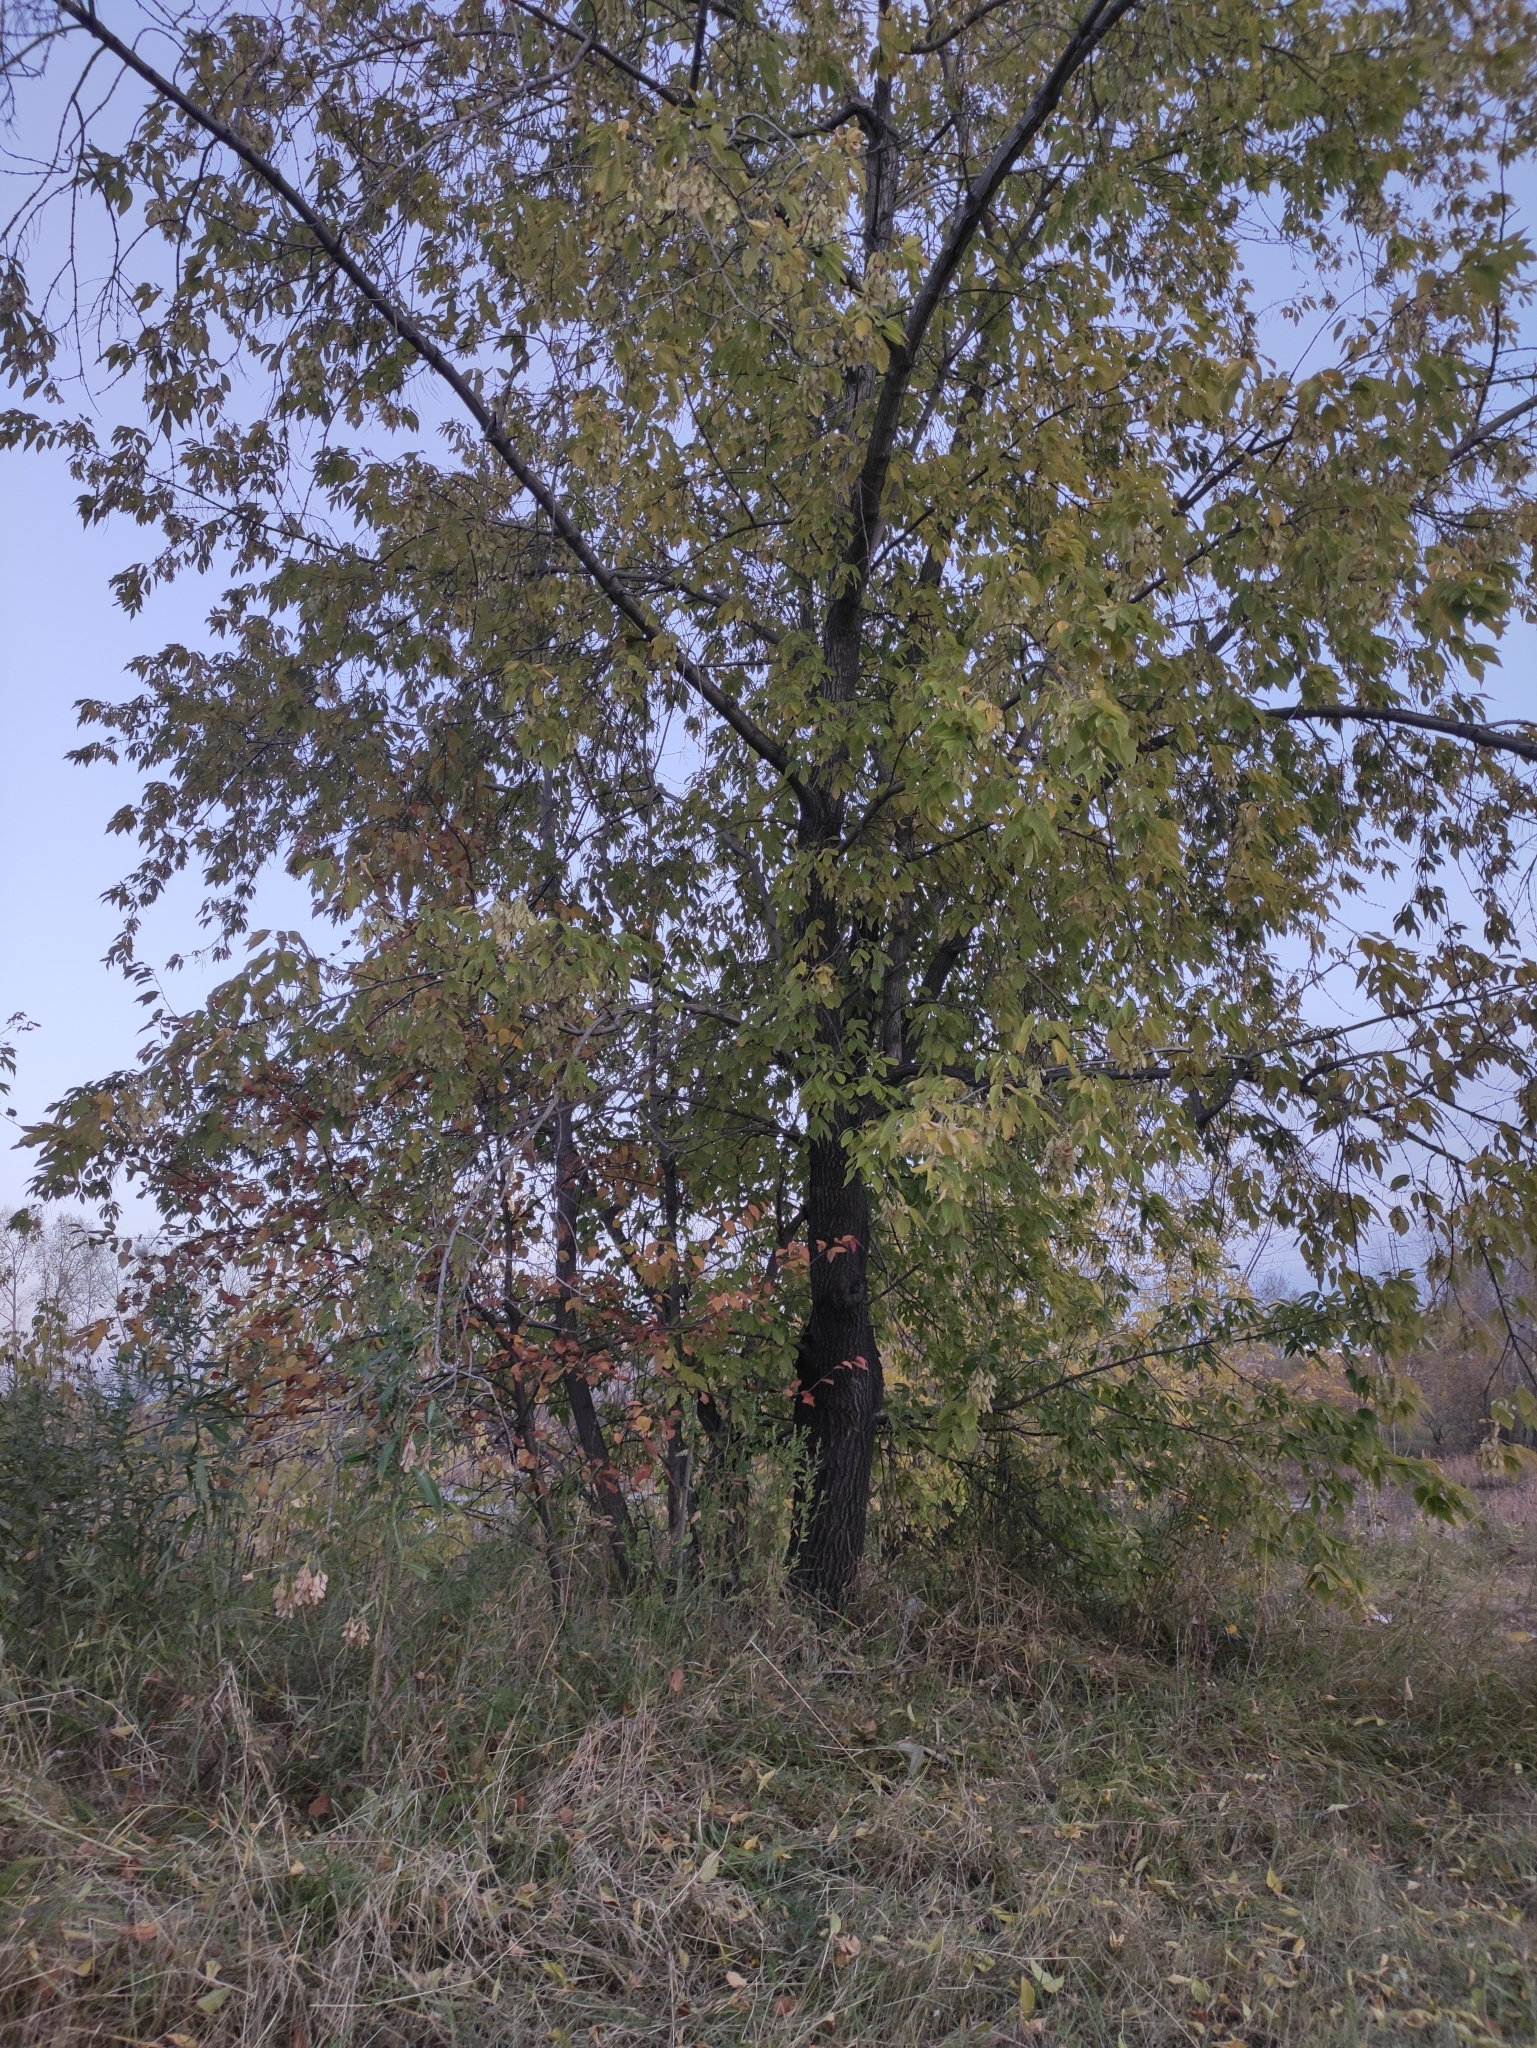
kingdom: Plantae
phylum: Tracheophyta
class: Magnoliopsida
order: Sapindales
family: Sapindaceae
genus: Acer
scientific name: Acer negundo
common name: Ashleaf maple
